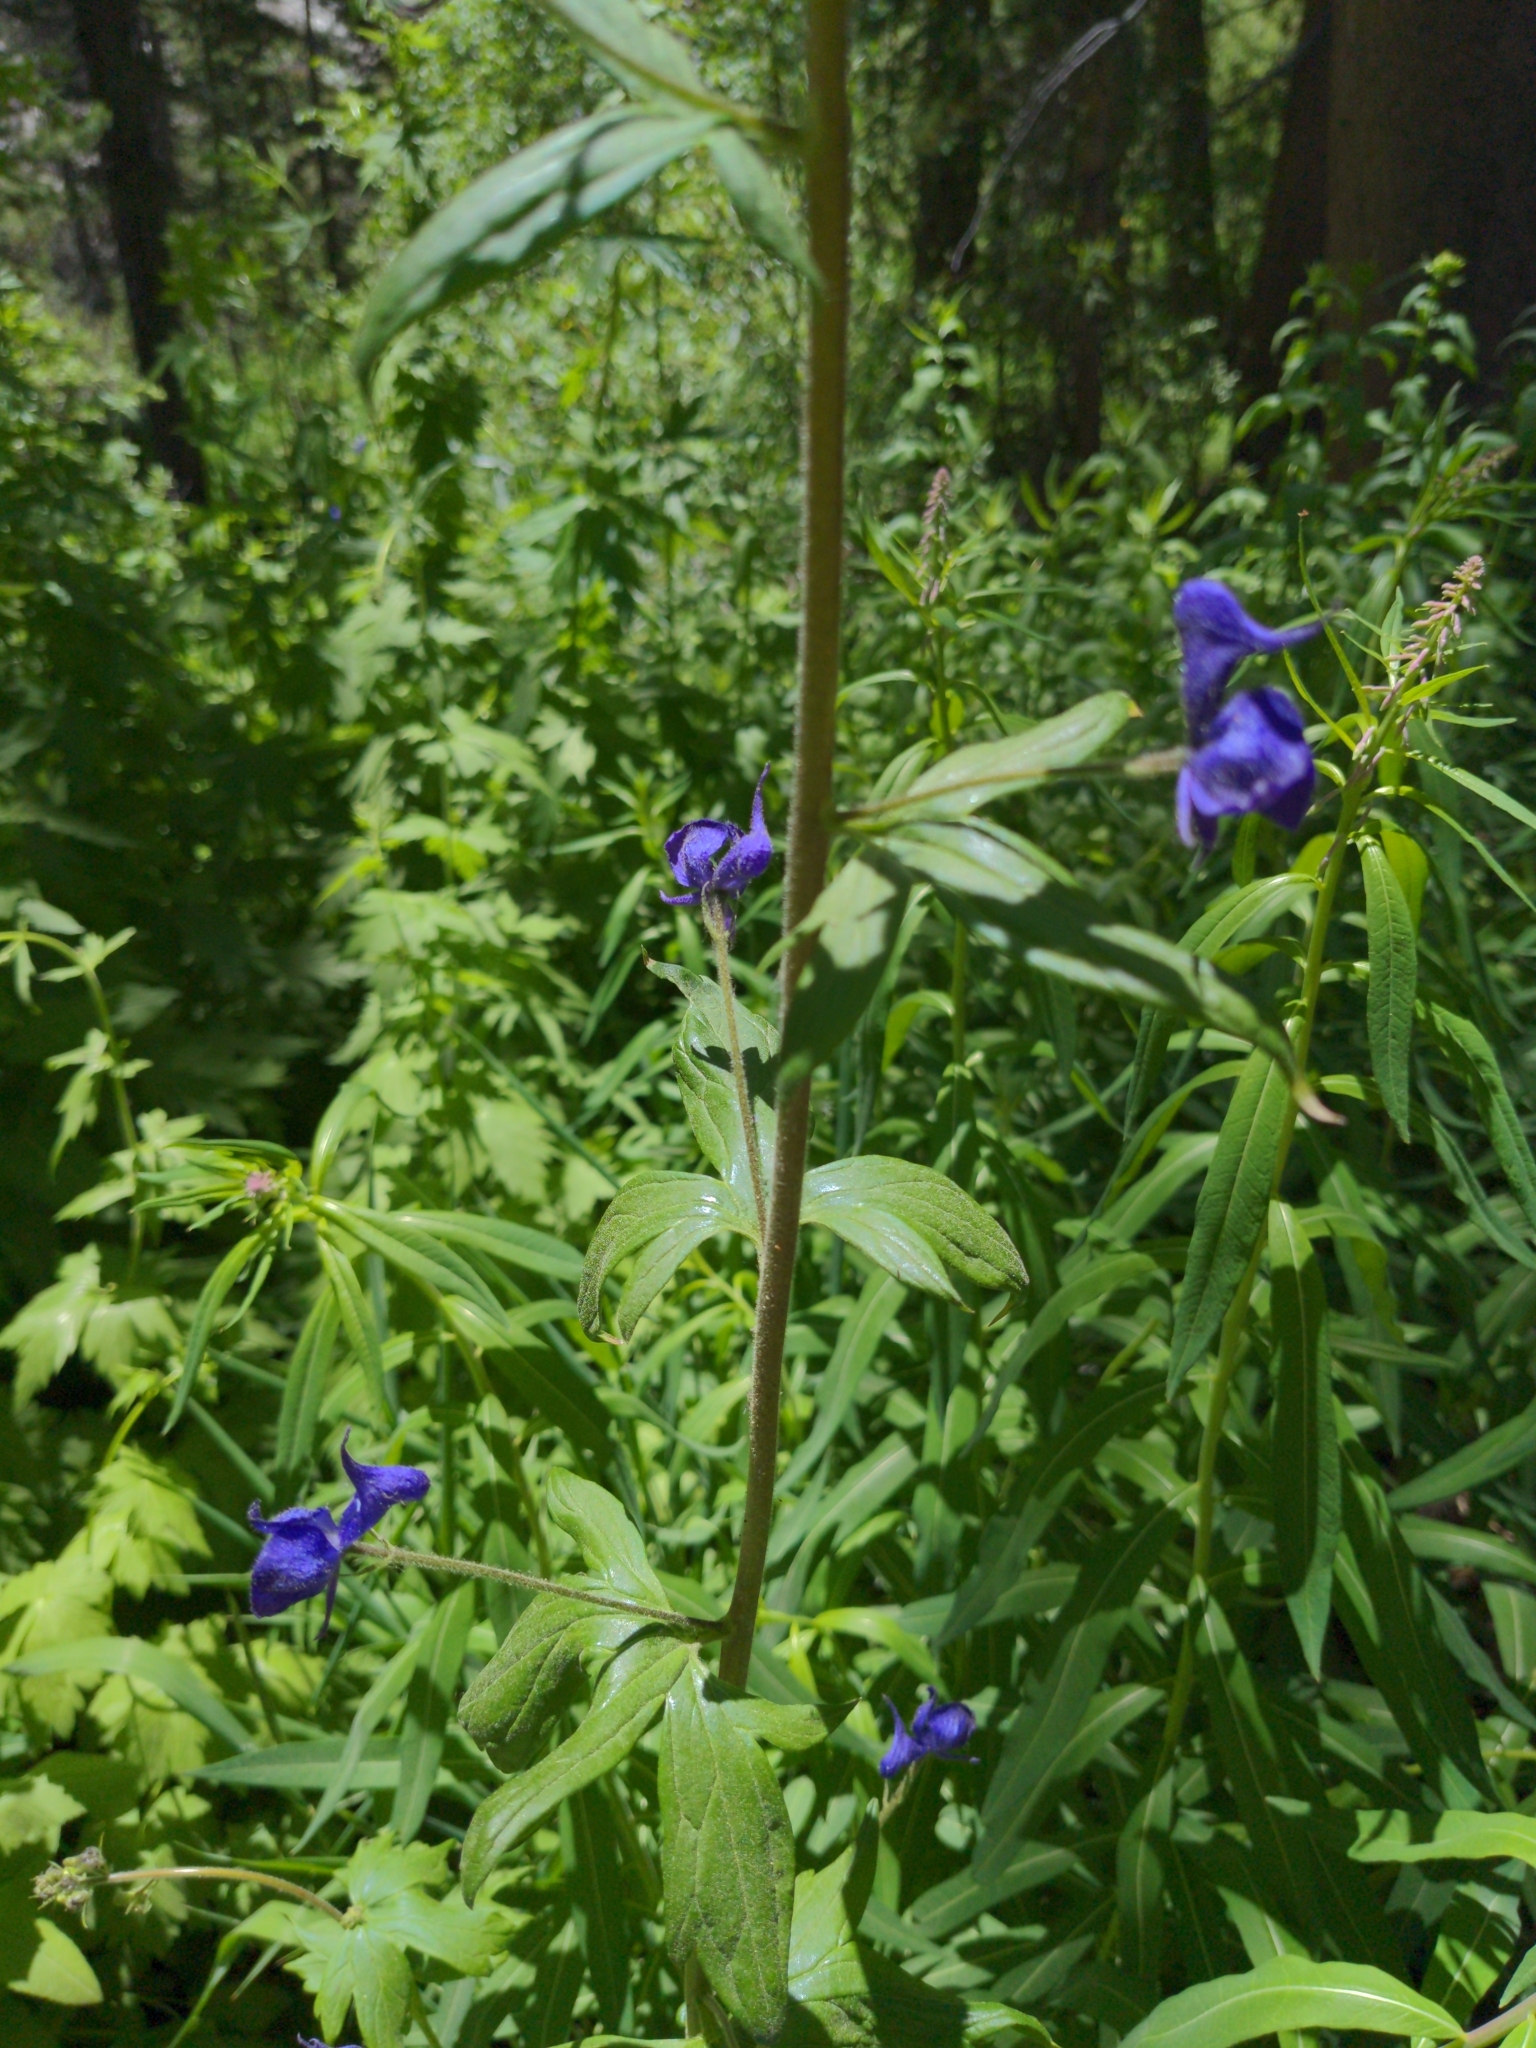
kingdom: Plantae
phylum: Tracheophyta
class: Magnoliopsida
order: Ranunculales
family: Ranunculaceae
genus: Aconitum
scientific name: Aconitum columbianum
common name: Columbia aconite
